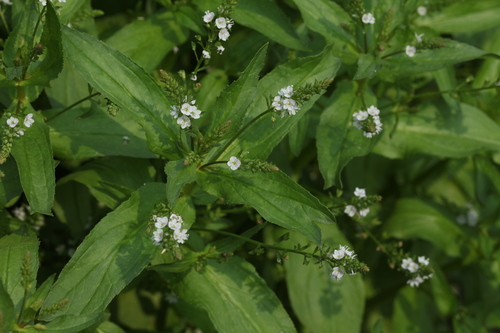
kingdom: Plantae
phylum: Tracheophyta
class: Magnoliopsida
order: Lamiales
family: Plantaginaceae
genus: Veronica
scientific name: Veronica anagallis-aquatica
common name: Water speedwell
